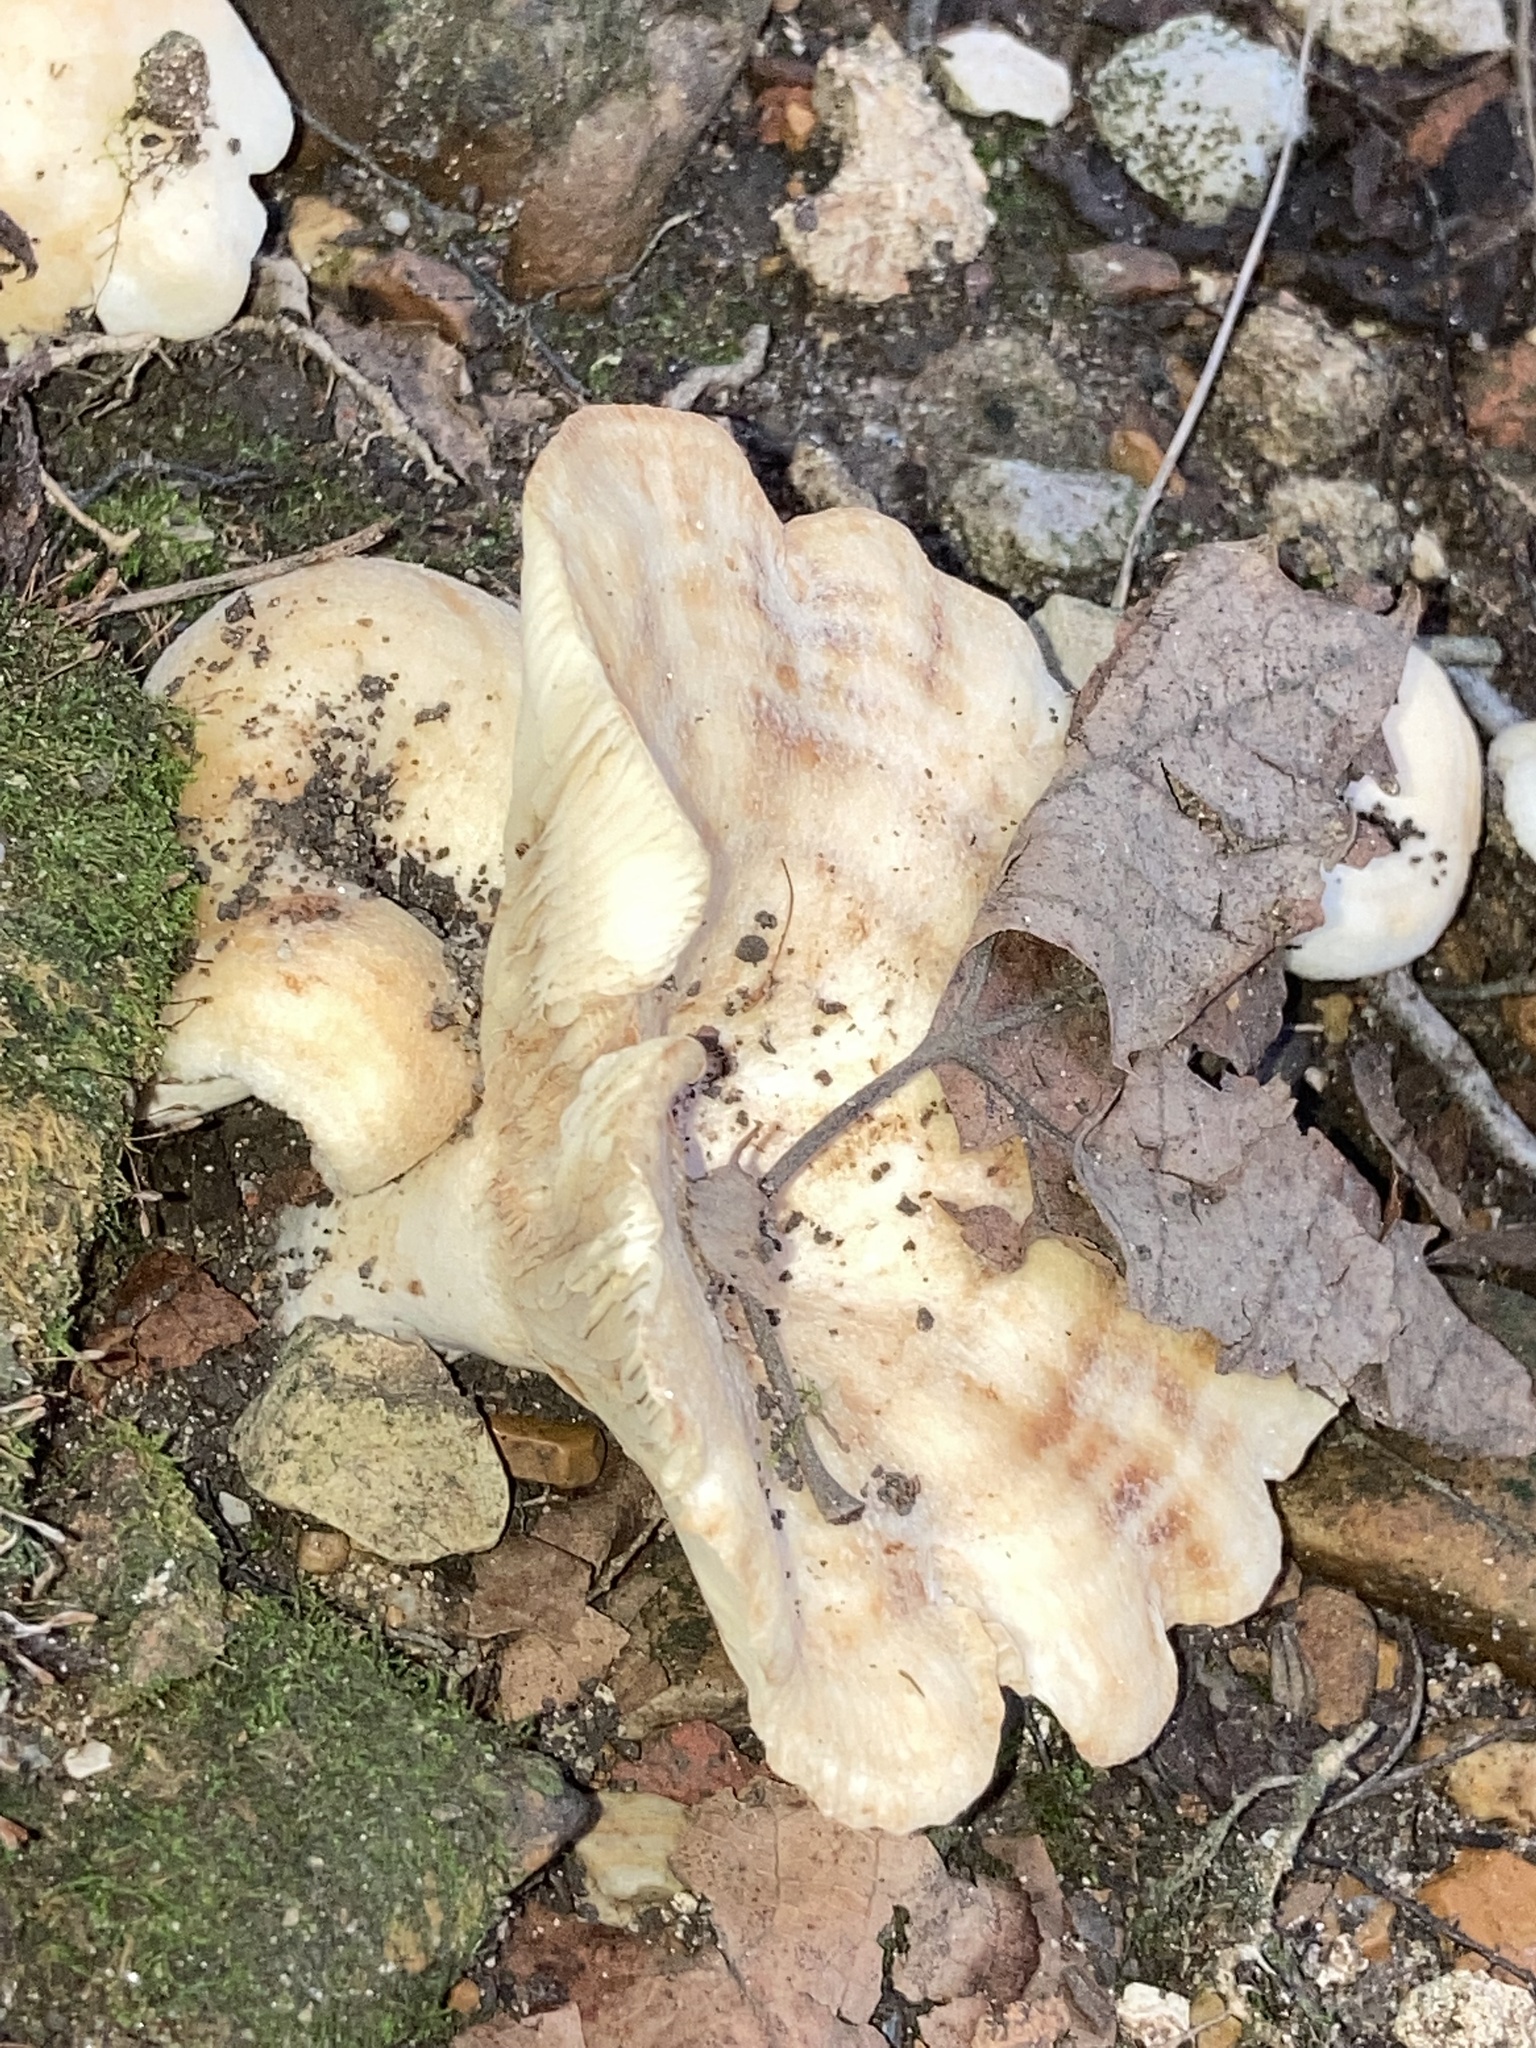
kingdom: Fungi
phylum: Basidiomycota
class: Agaricomycetes
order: Russulales
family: Russulaceae
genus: Lactarius
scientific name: Lactarius psammicola
